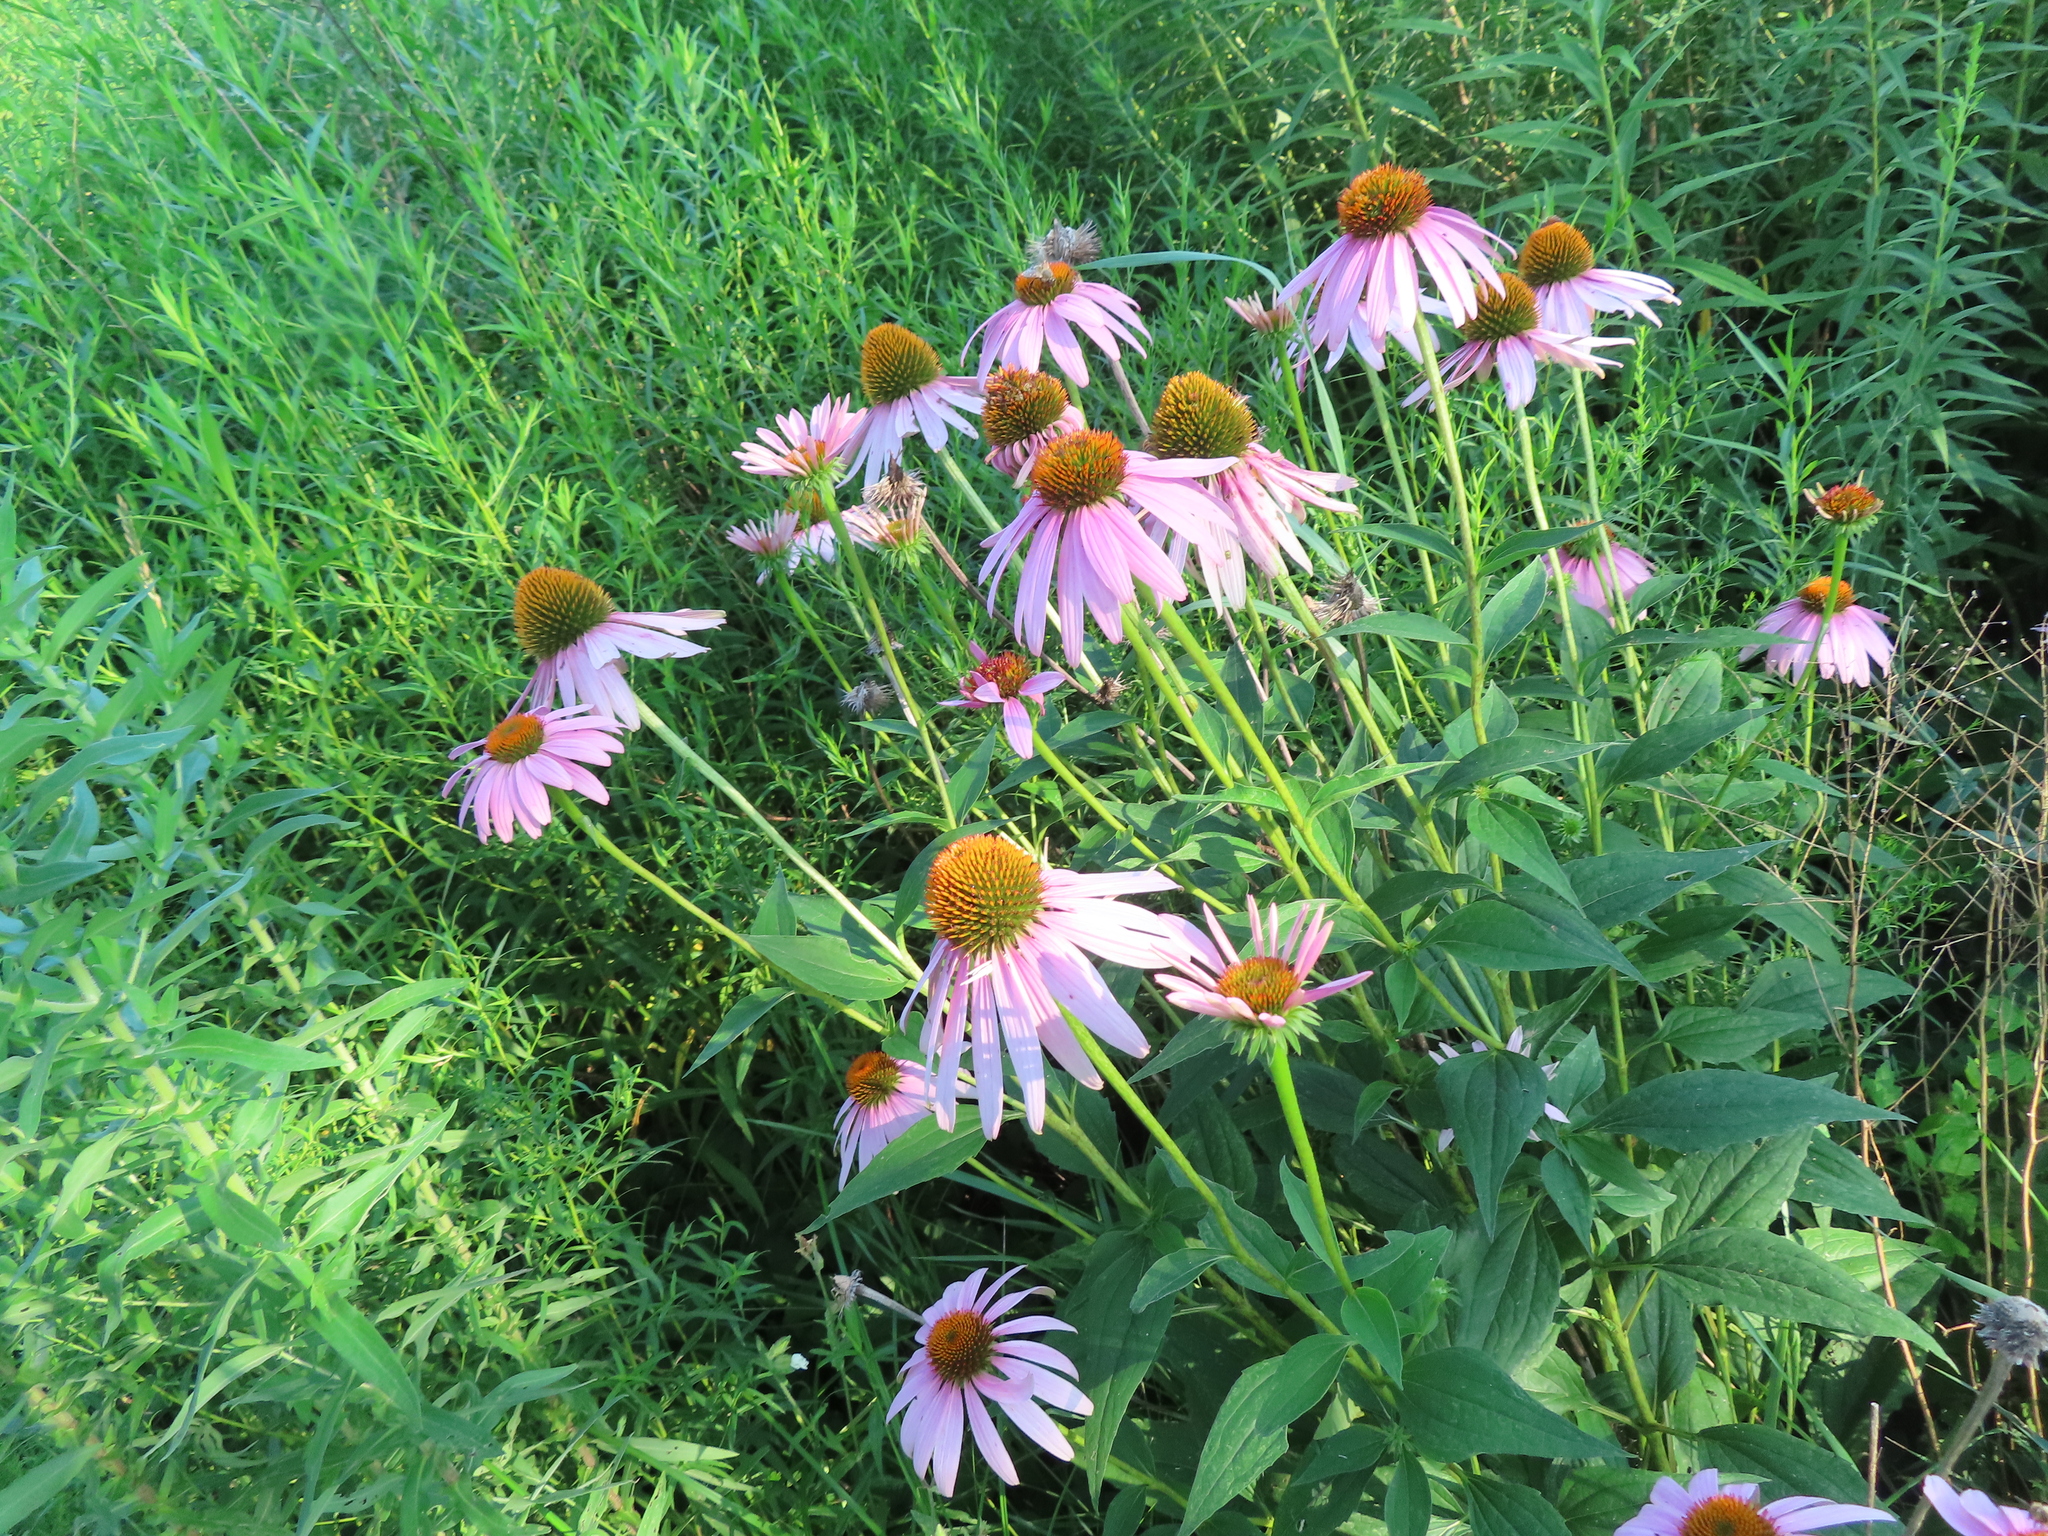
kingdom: Plantae
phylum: Tracheophyta
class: Magnoliopsida
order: Asterales
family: Asteraceae
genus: Echinacea
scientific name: Echinacea purpurea
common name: Broad-leaved purple coneflower
